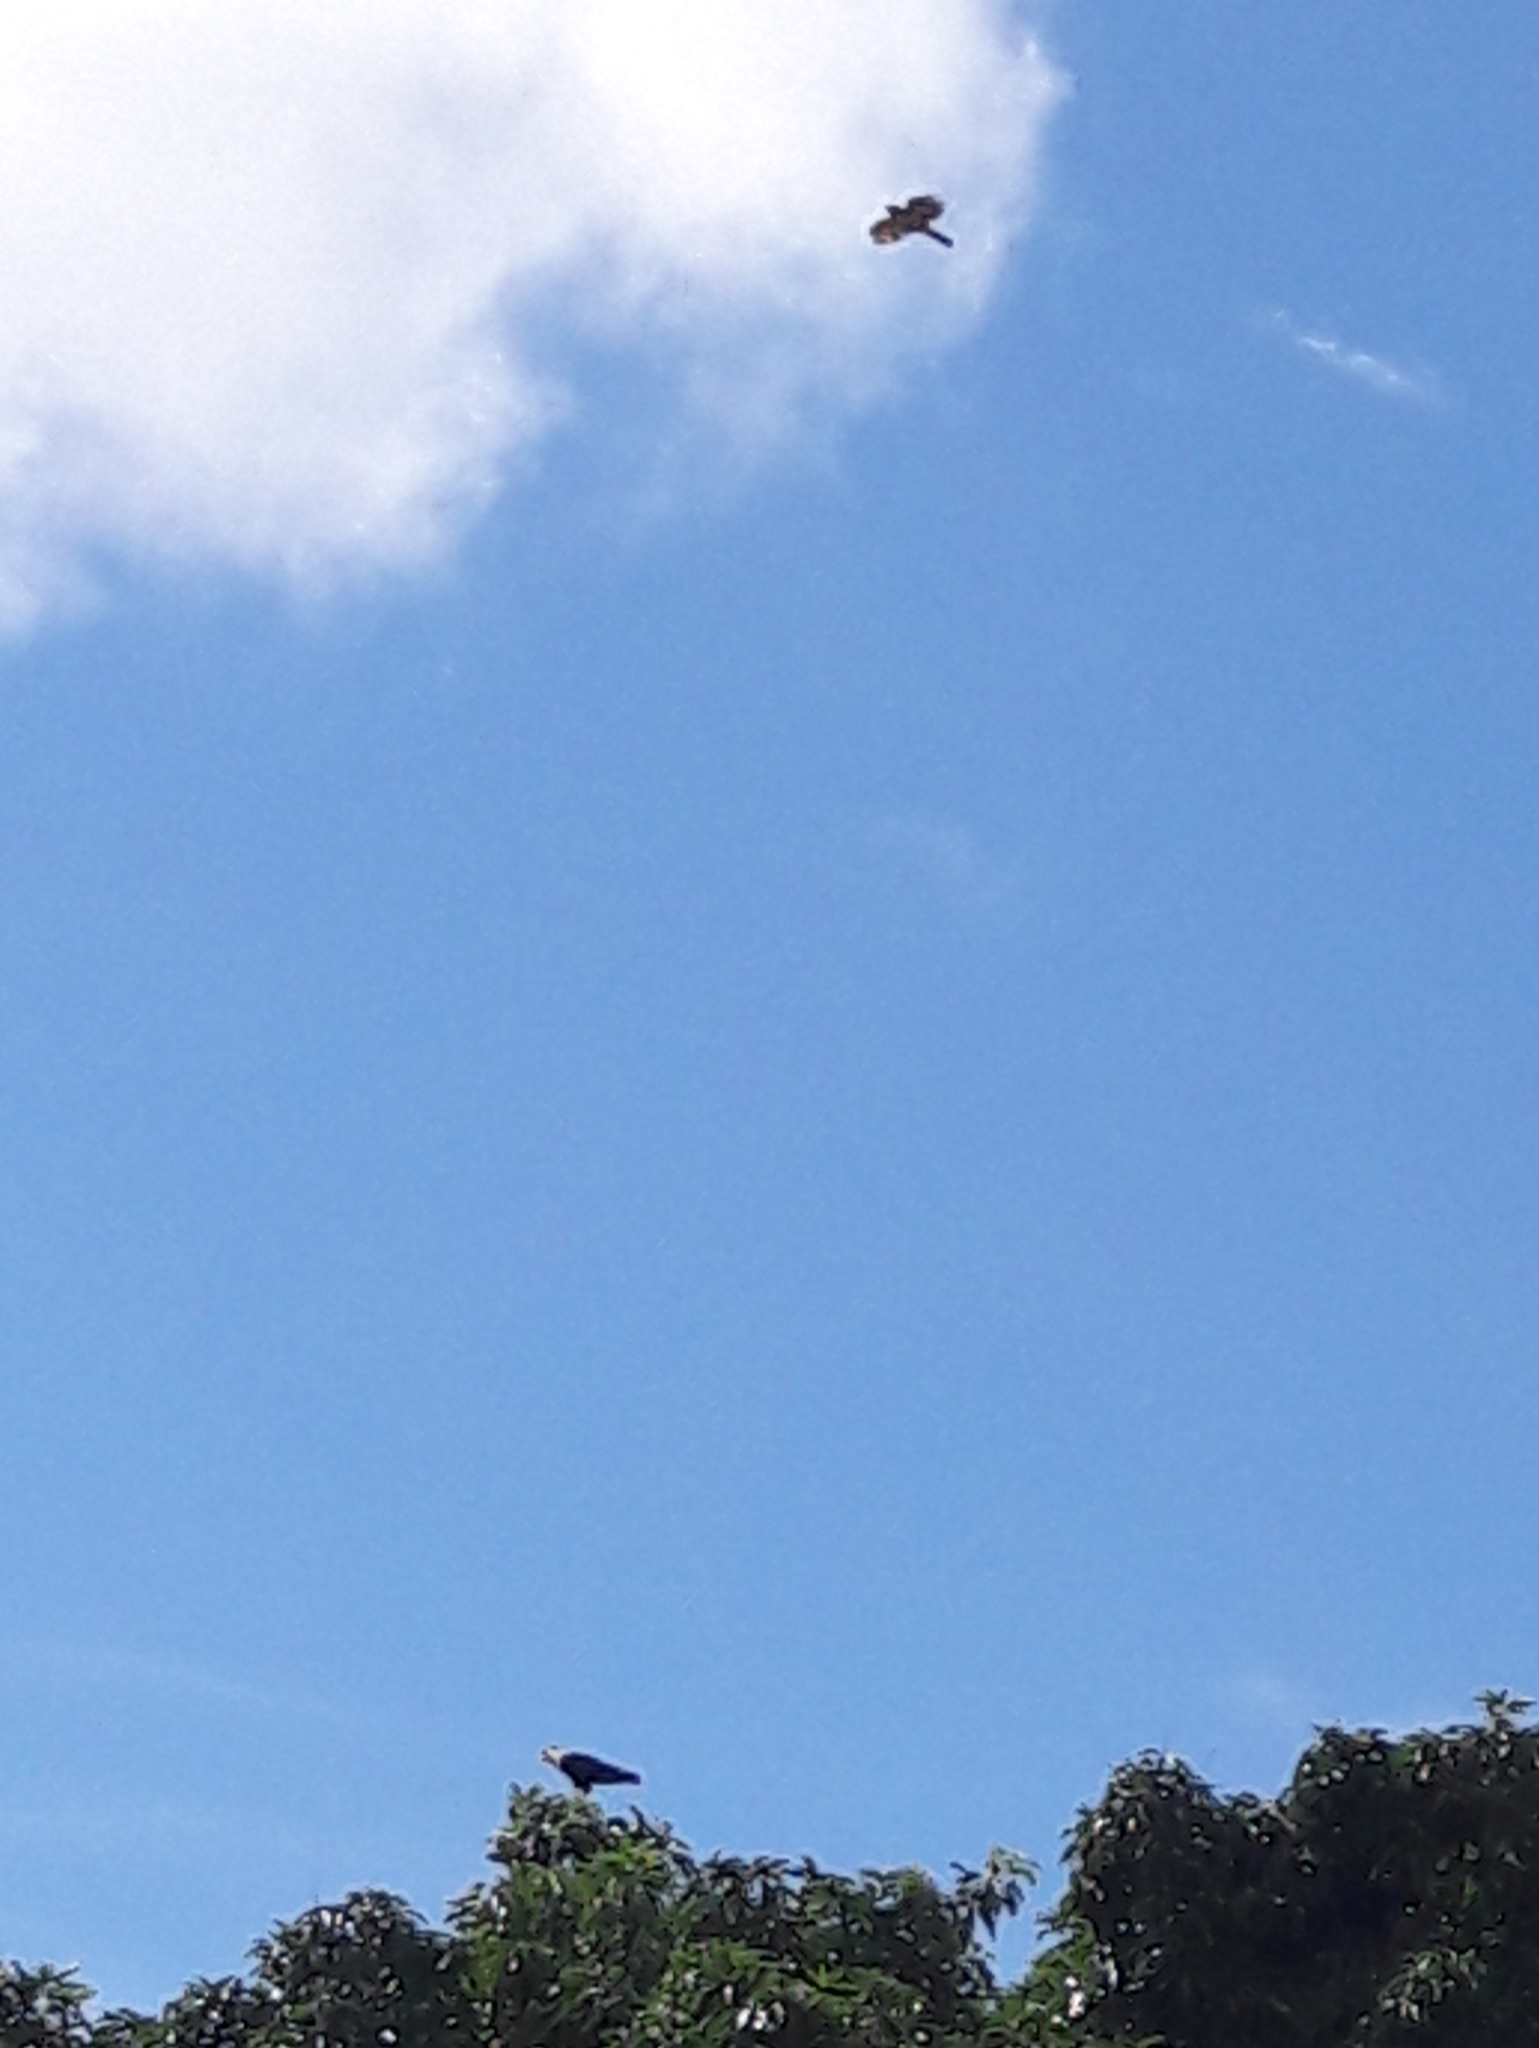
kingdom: Animalia
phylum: Chordata
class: Aves
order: Accipitriformes
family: Accipitridae
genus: Rupornis
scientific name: Rupornis magnirostris
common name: Roadside hawk
